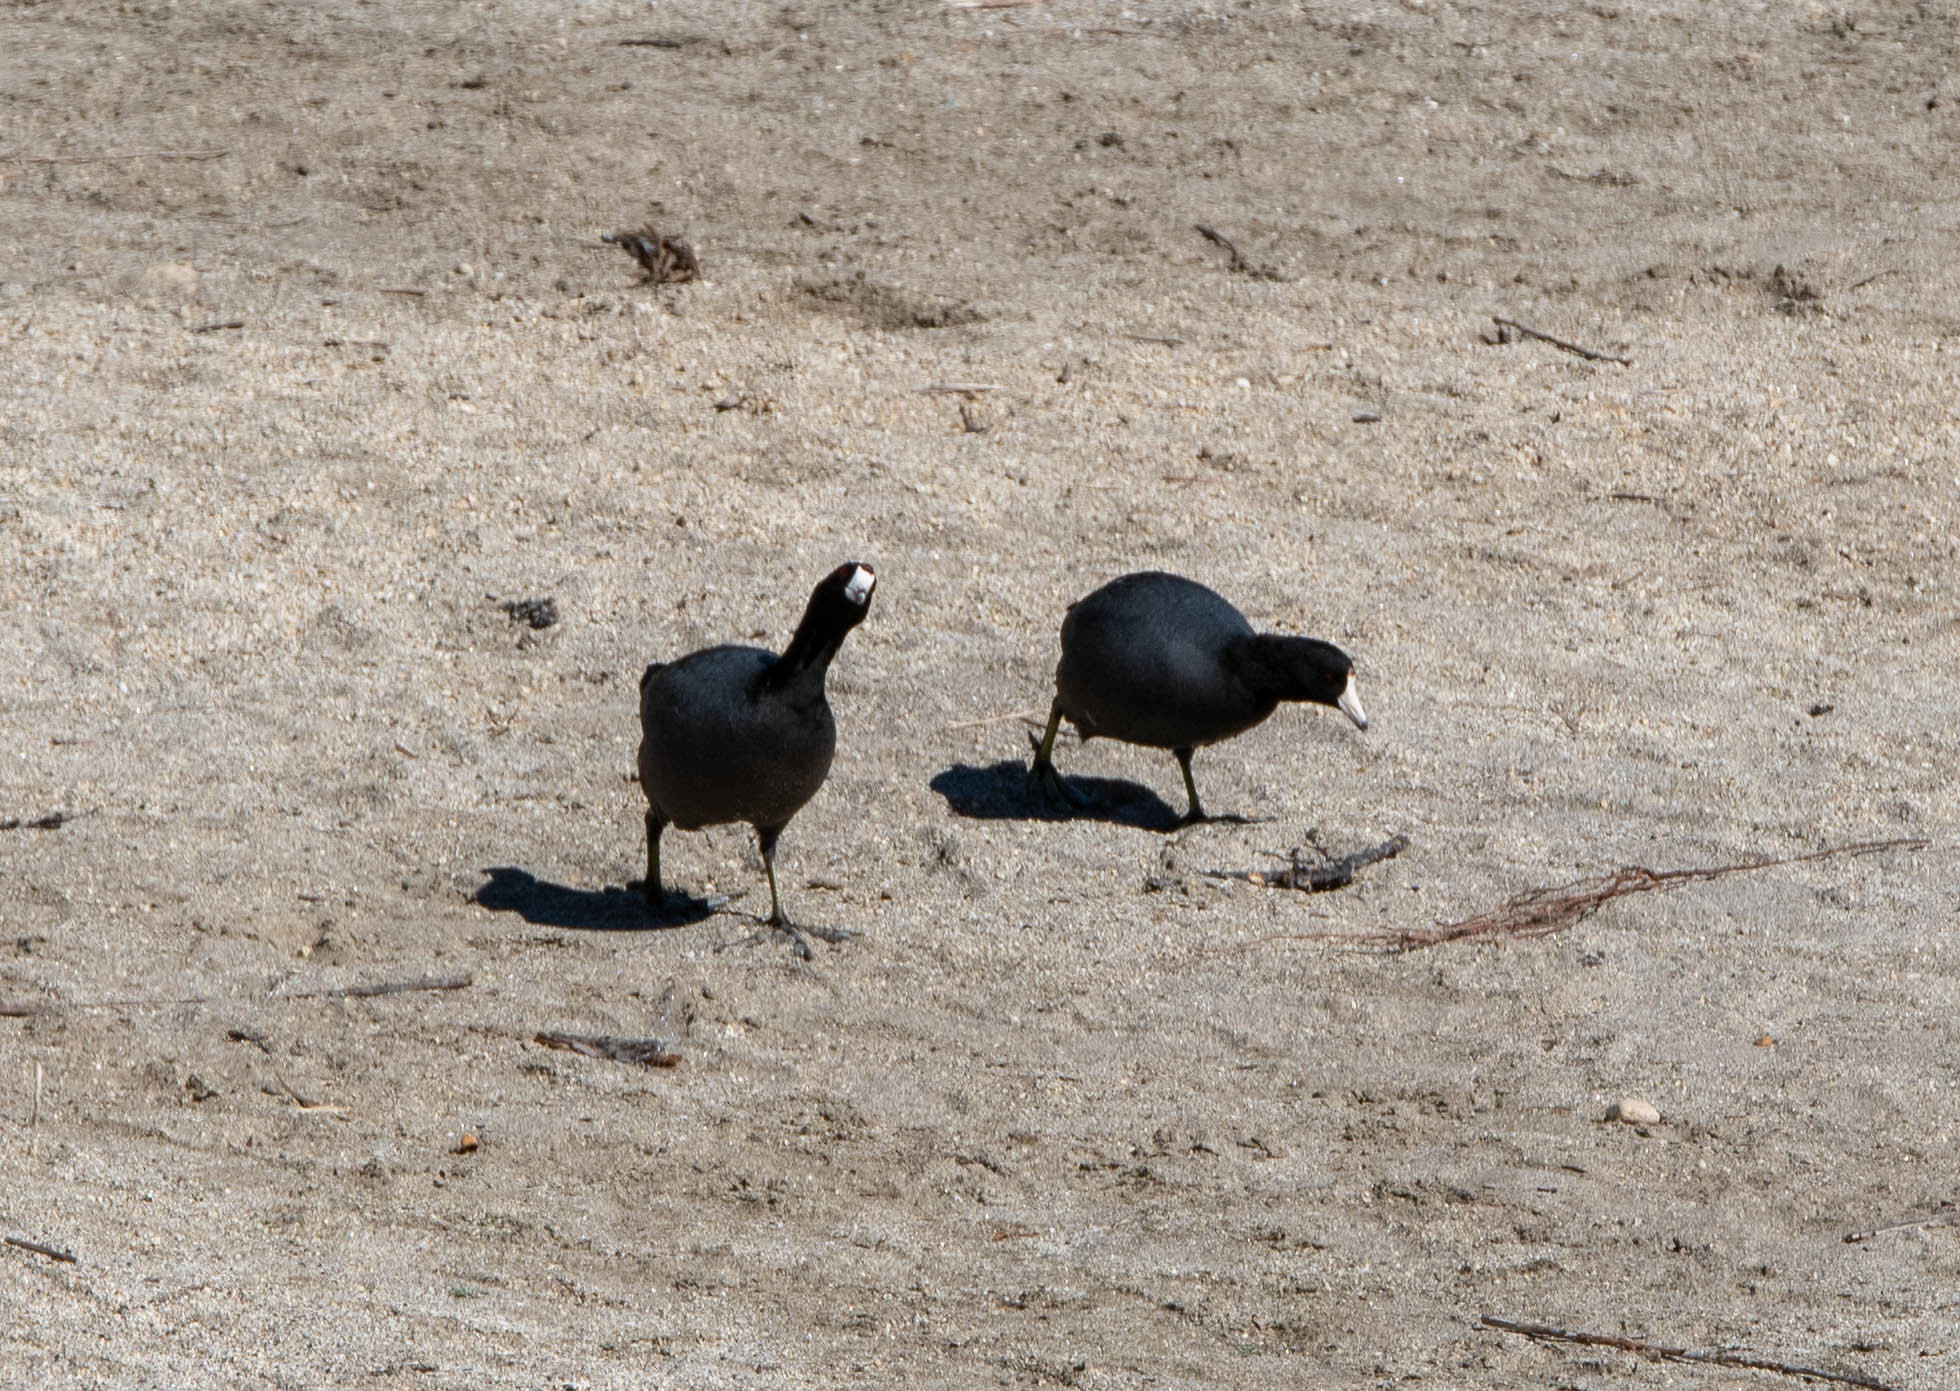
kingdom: Animalia
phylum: Chordata
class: Aves
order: Gruiformes
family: Rallidae
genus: Fulica
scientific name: Fulica americana
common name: American coot
